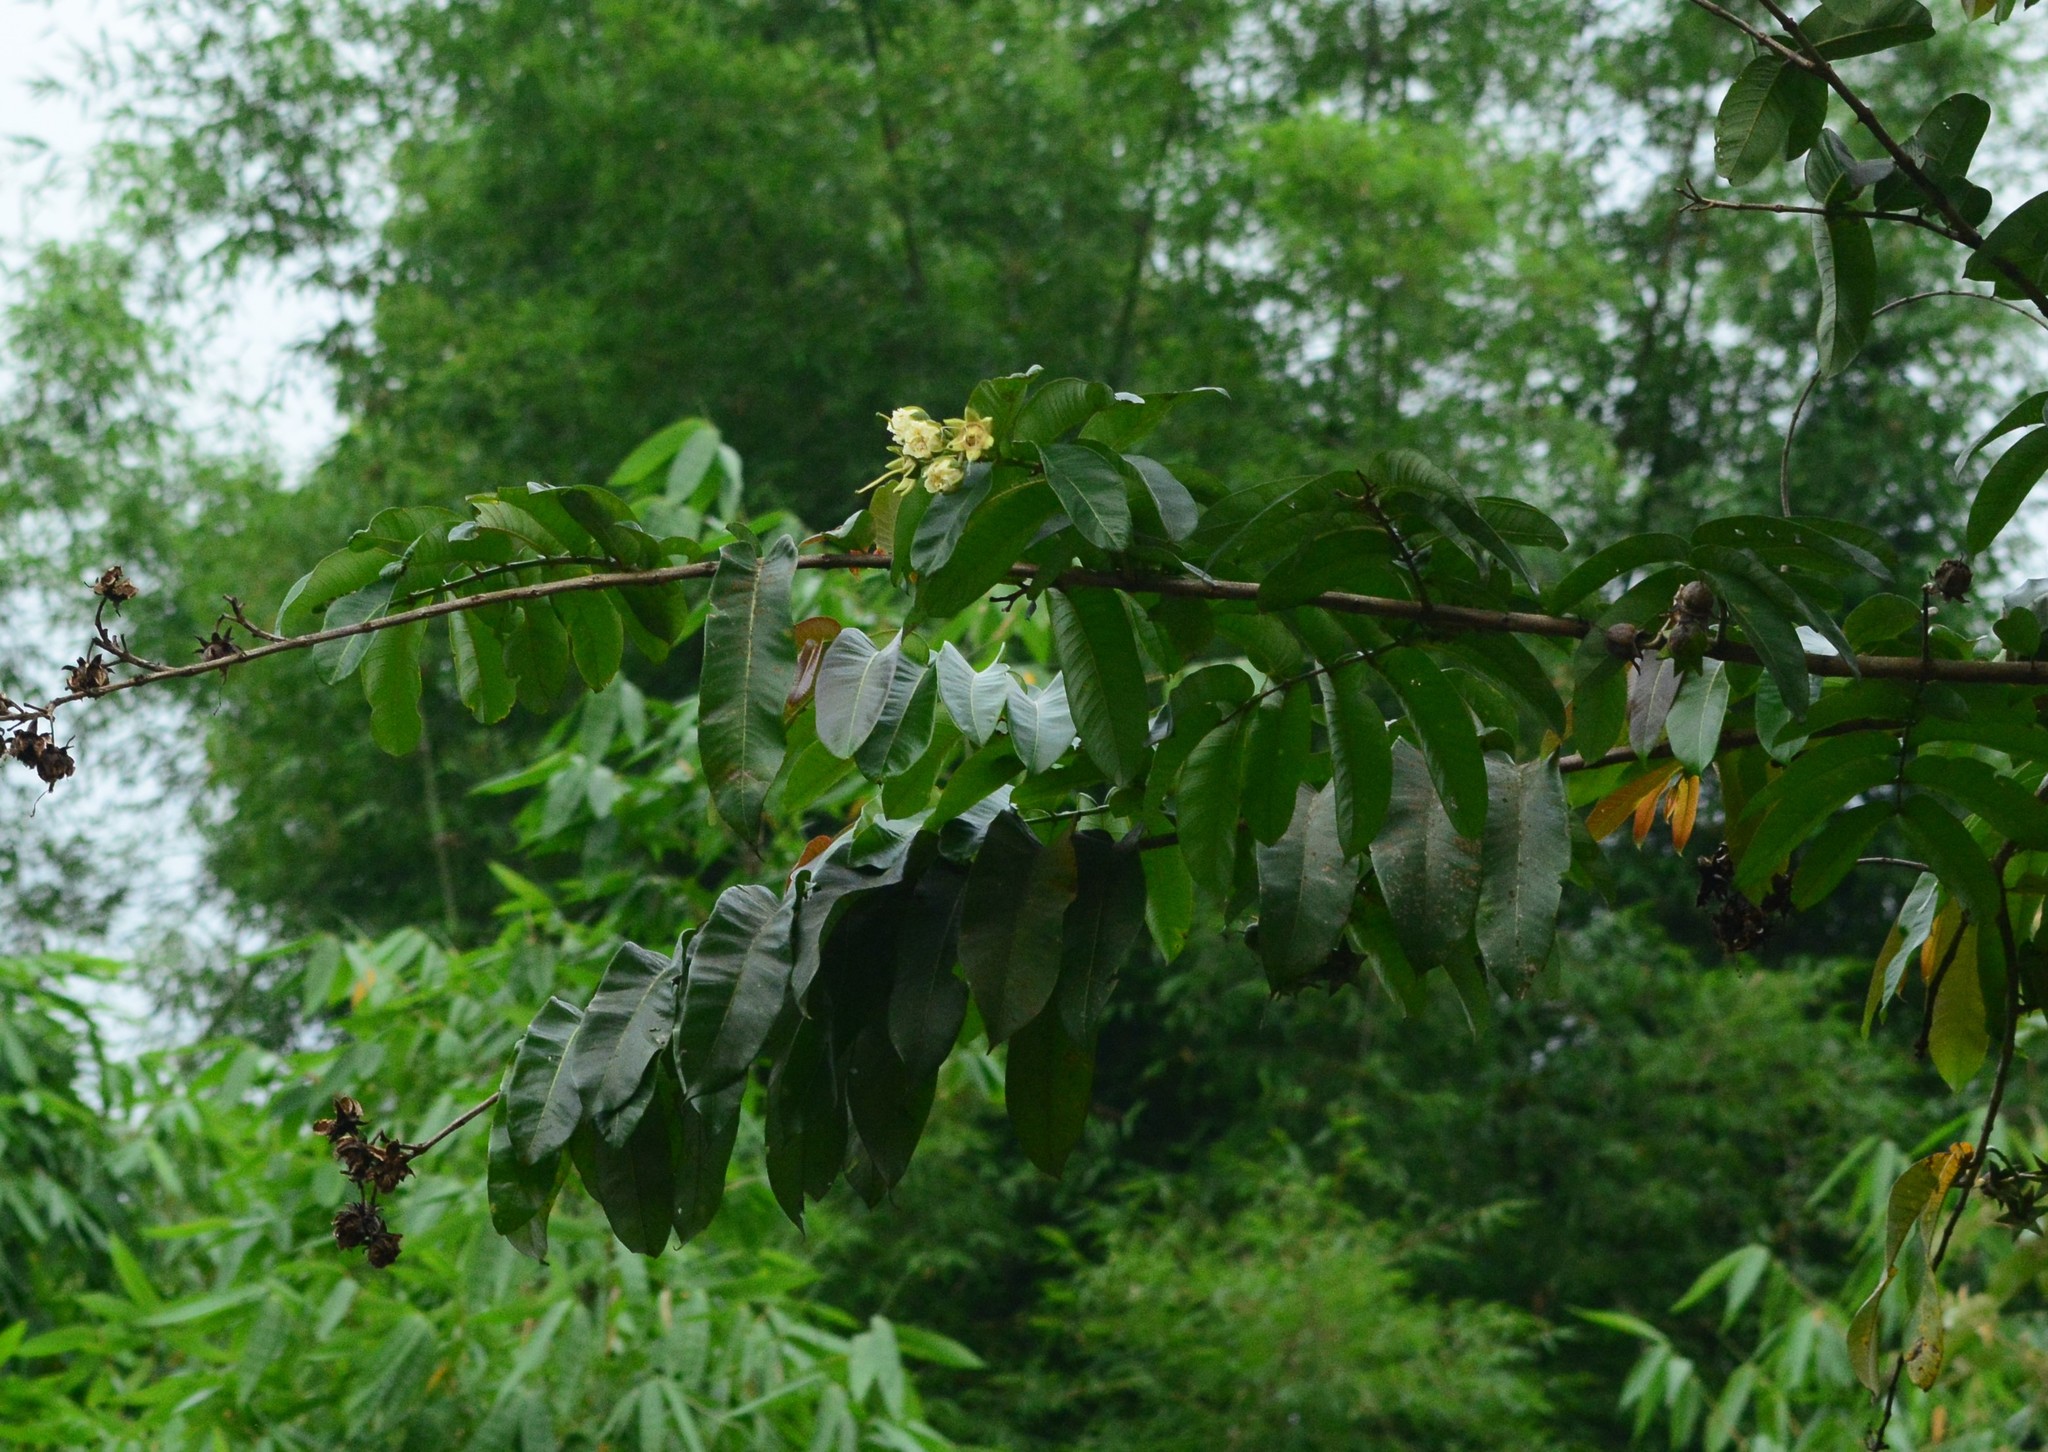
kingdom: Plantae
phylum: Tracheophyta
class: Magnoliopsida
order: Myrtales
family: Lythraceae
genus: Duabanga
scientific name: Duabanga grandiflora
